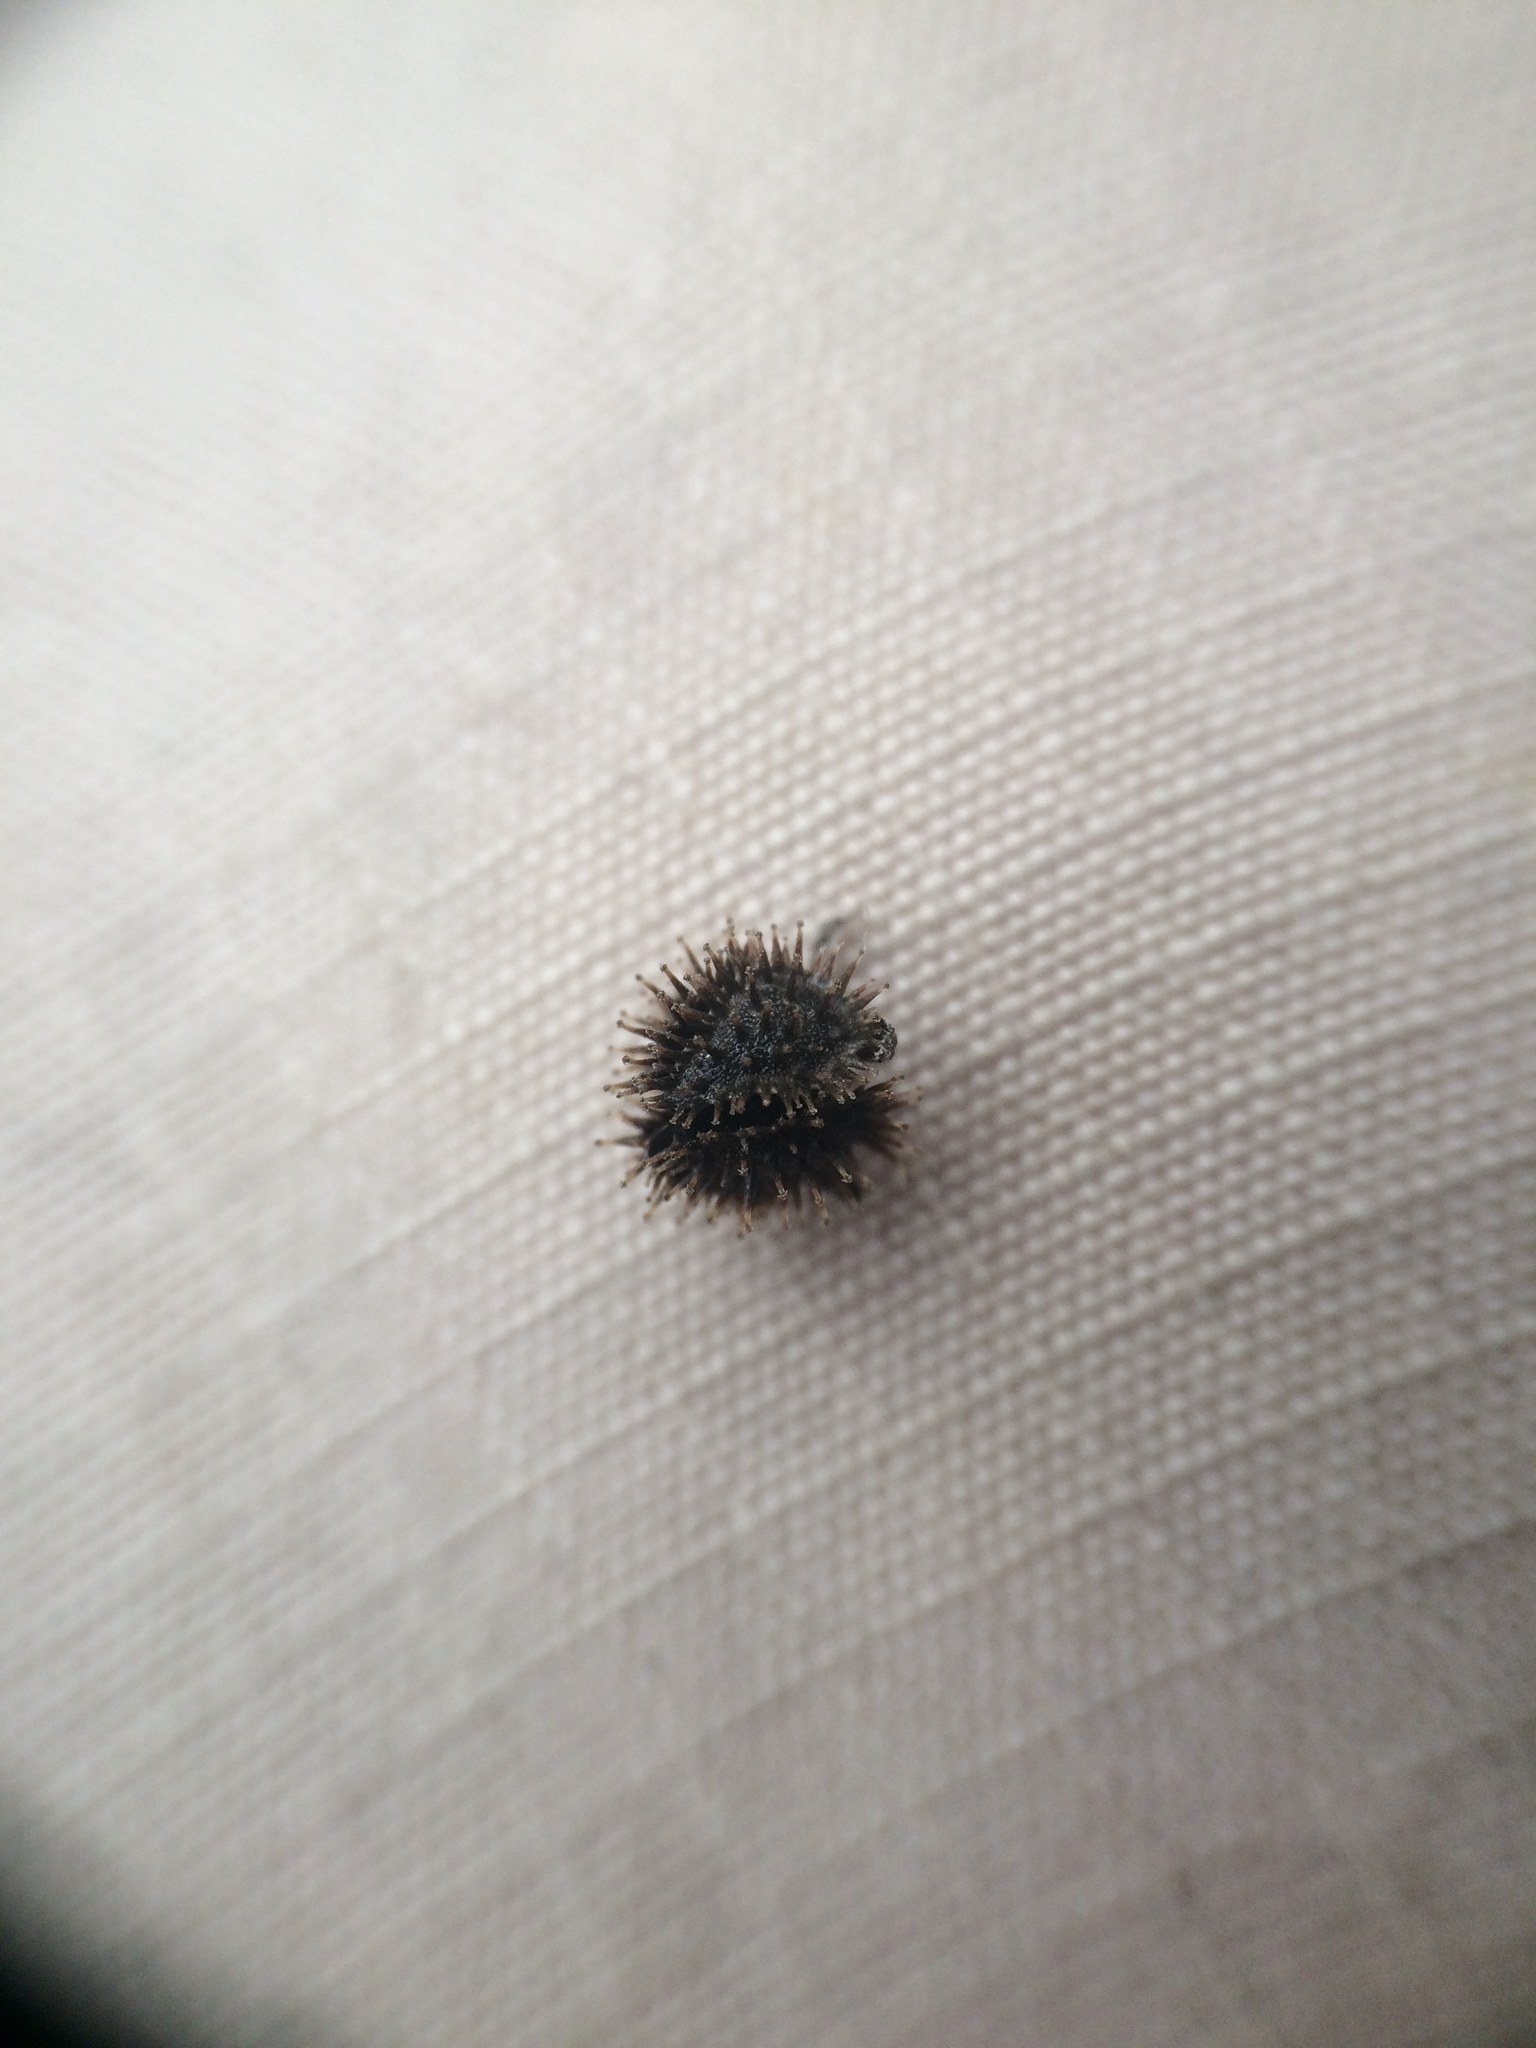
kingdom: Plantae
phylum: Tracheophyta
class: Magnoliopsida
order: Boraginales
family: Boraginaceae
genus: Hackelia
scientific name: Hackelia virginiana
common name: Beggar's-lice
